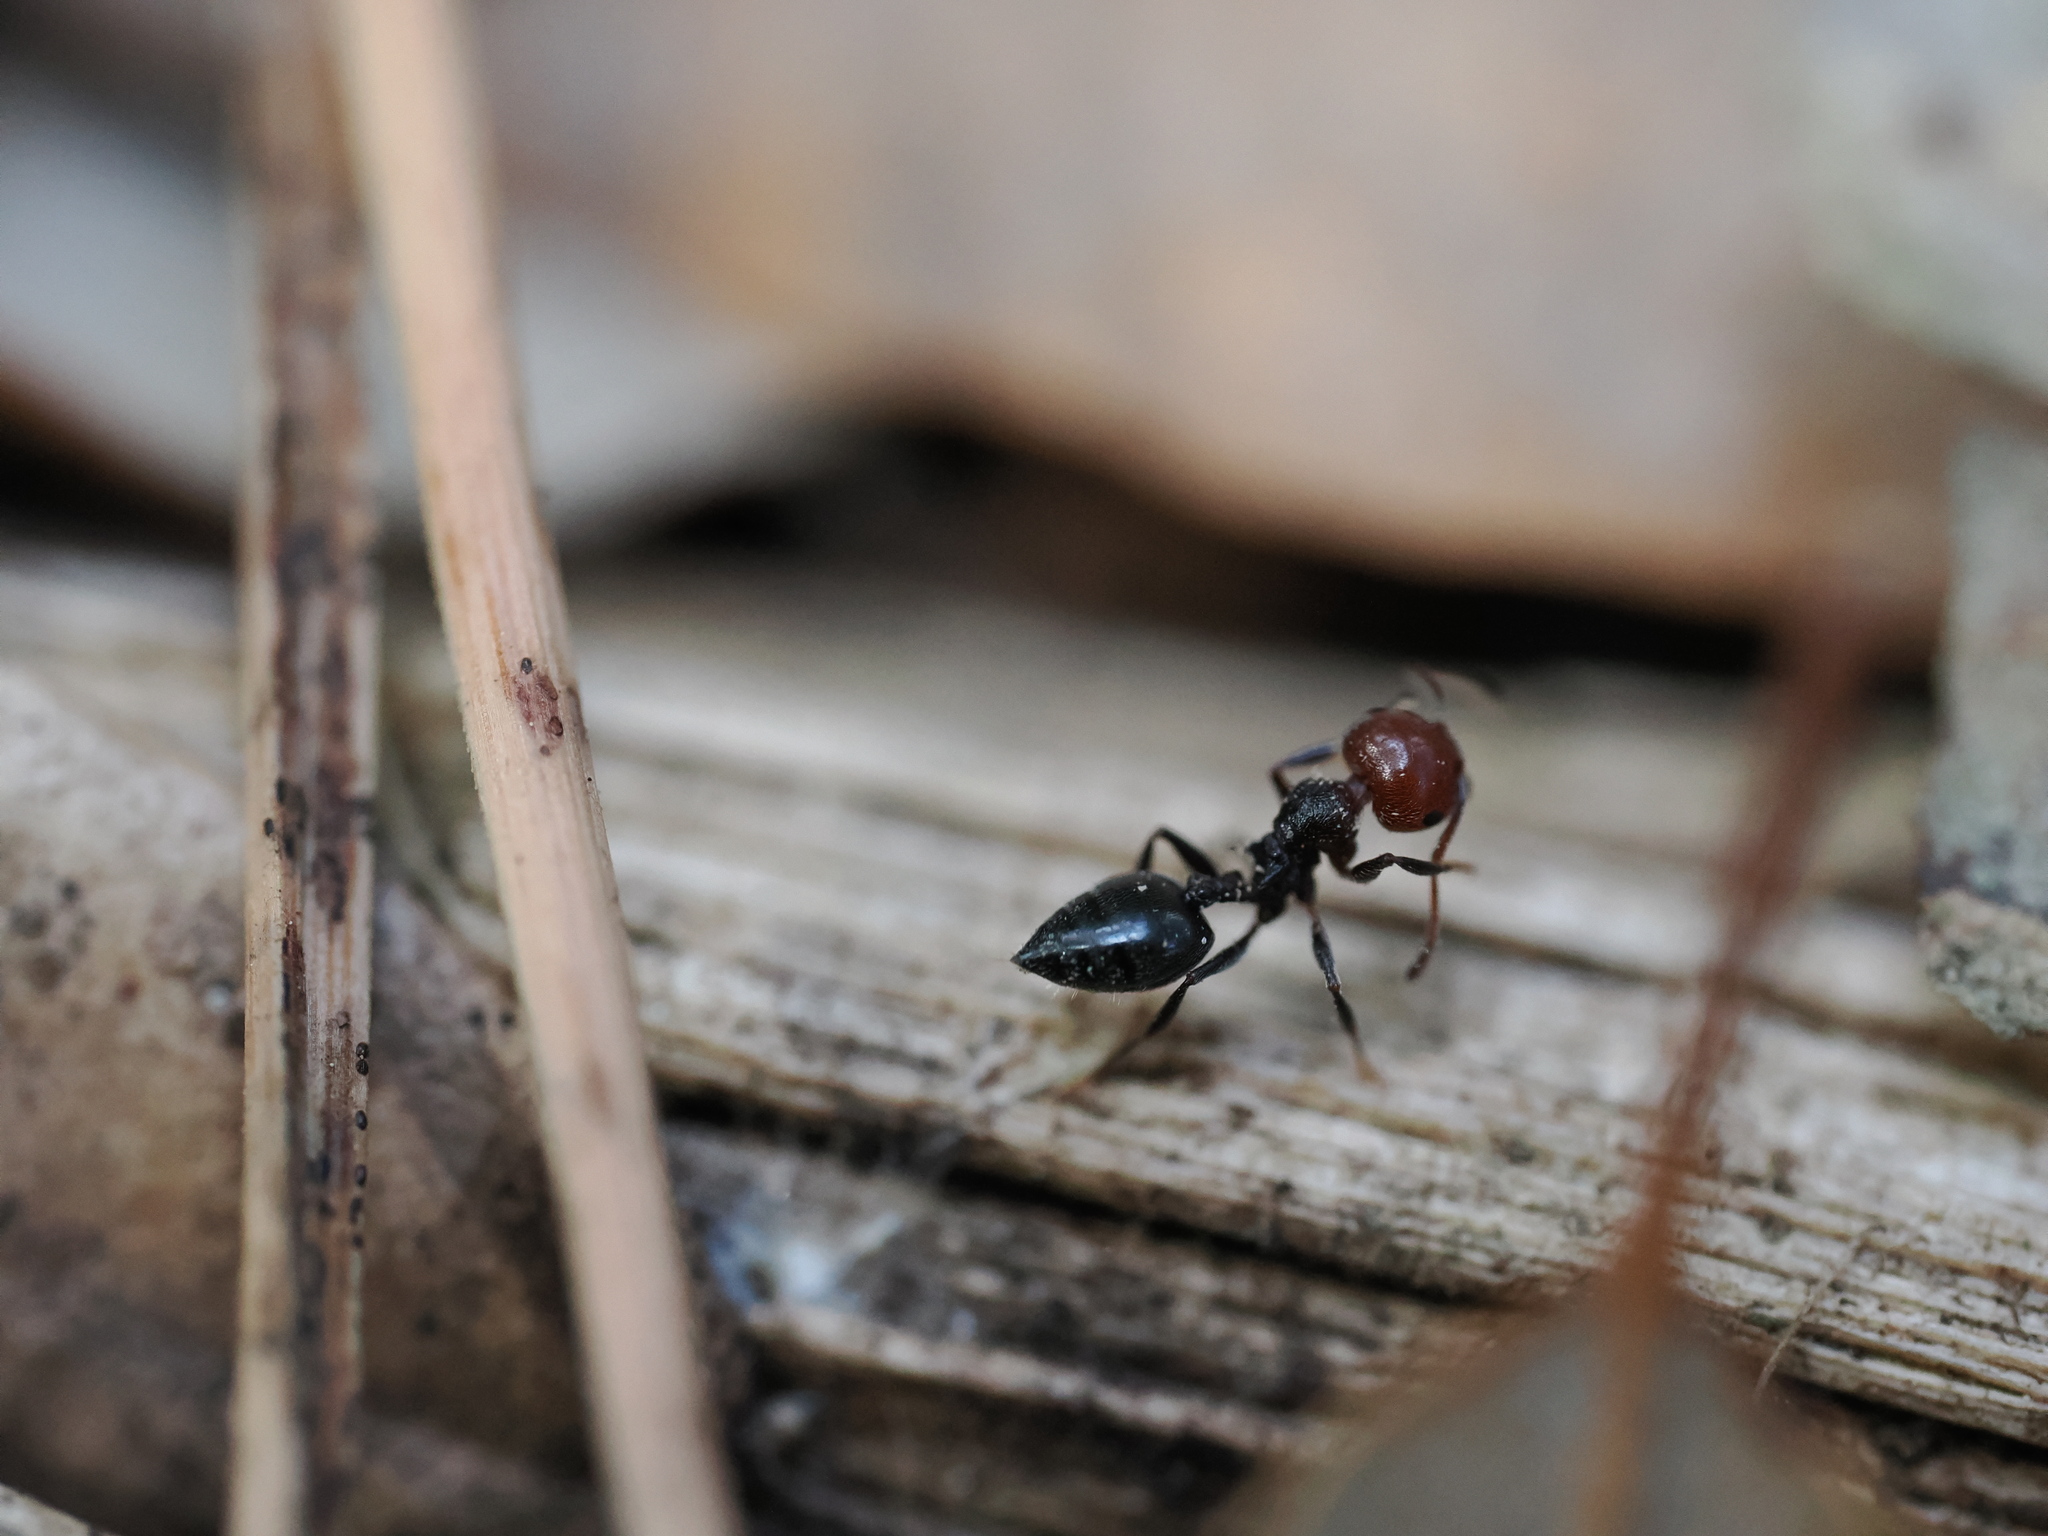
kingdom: Animalia
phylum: Arthropoda
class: Insecta
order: Hymenoptera
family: Formicidae
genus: Crematogaster
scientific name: Crematogaster scutellaris
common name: Fourmi du liège
